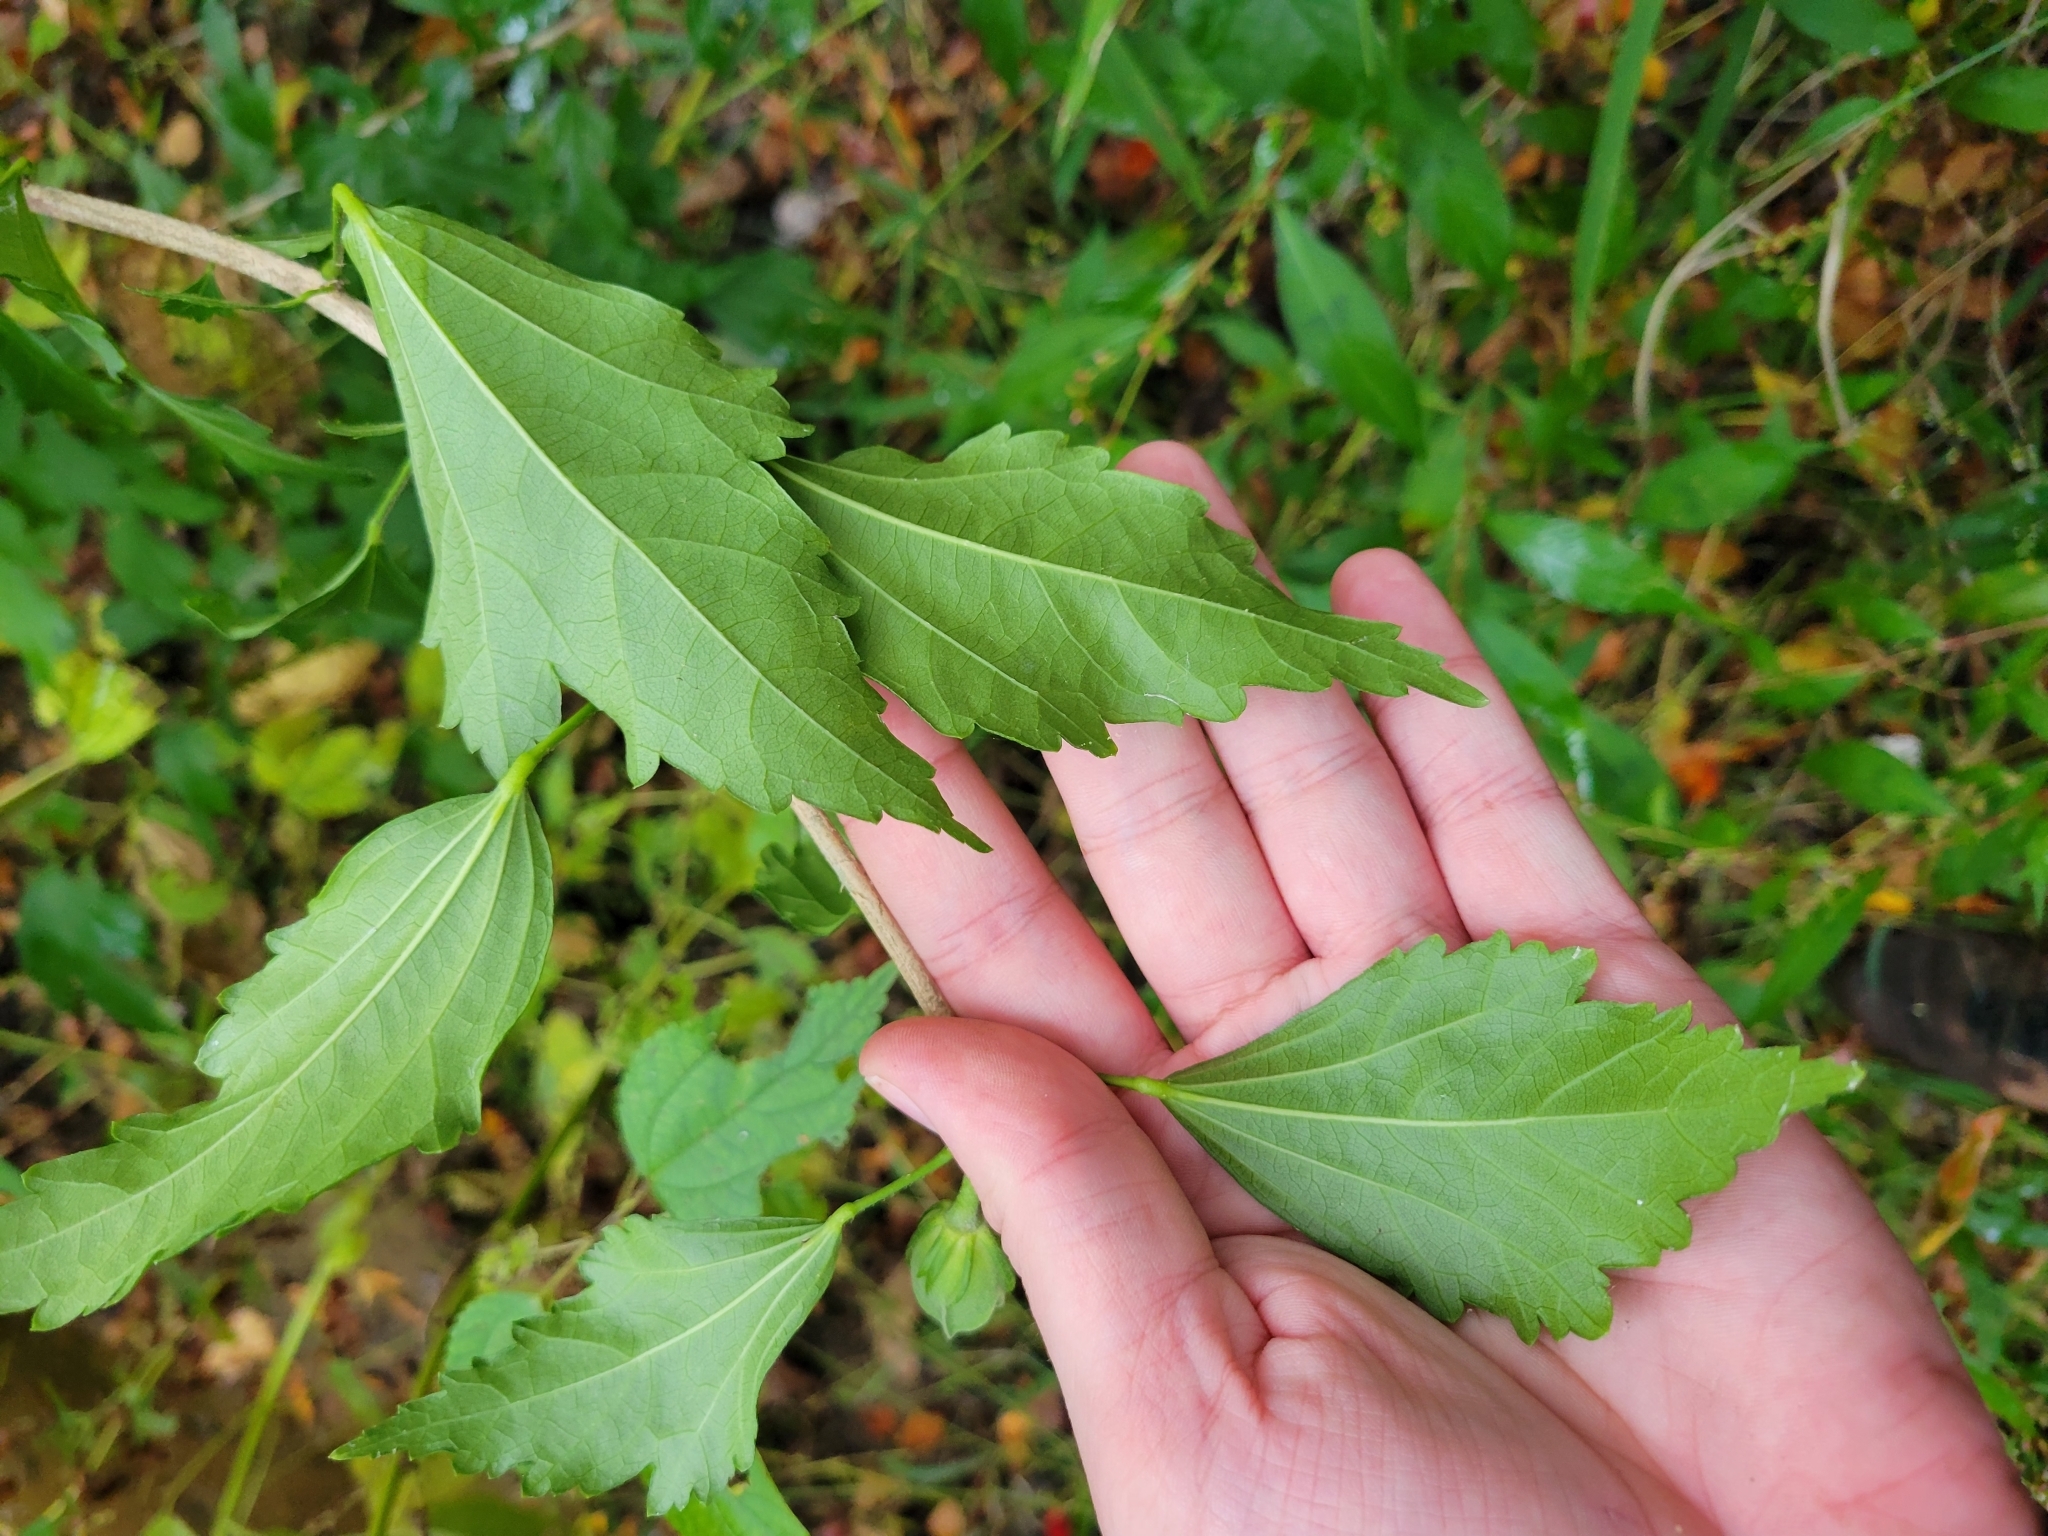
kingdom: Plantae
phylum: Tracheophyta
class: Magnoliopsida
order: Malvales
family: Malvaceae
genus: Hibiscus
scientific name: Hibiscus syriacus
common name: Syrian ketmia
